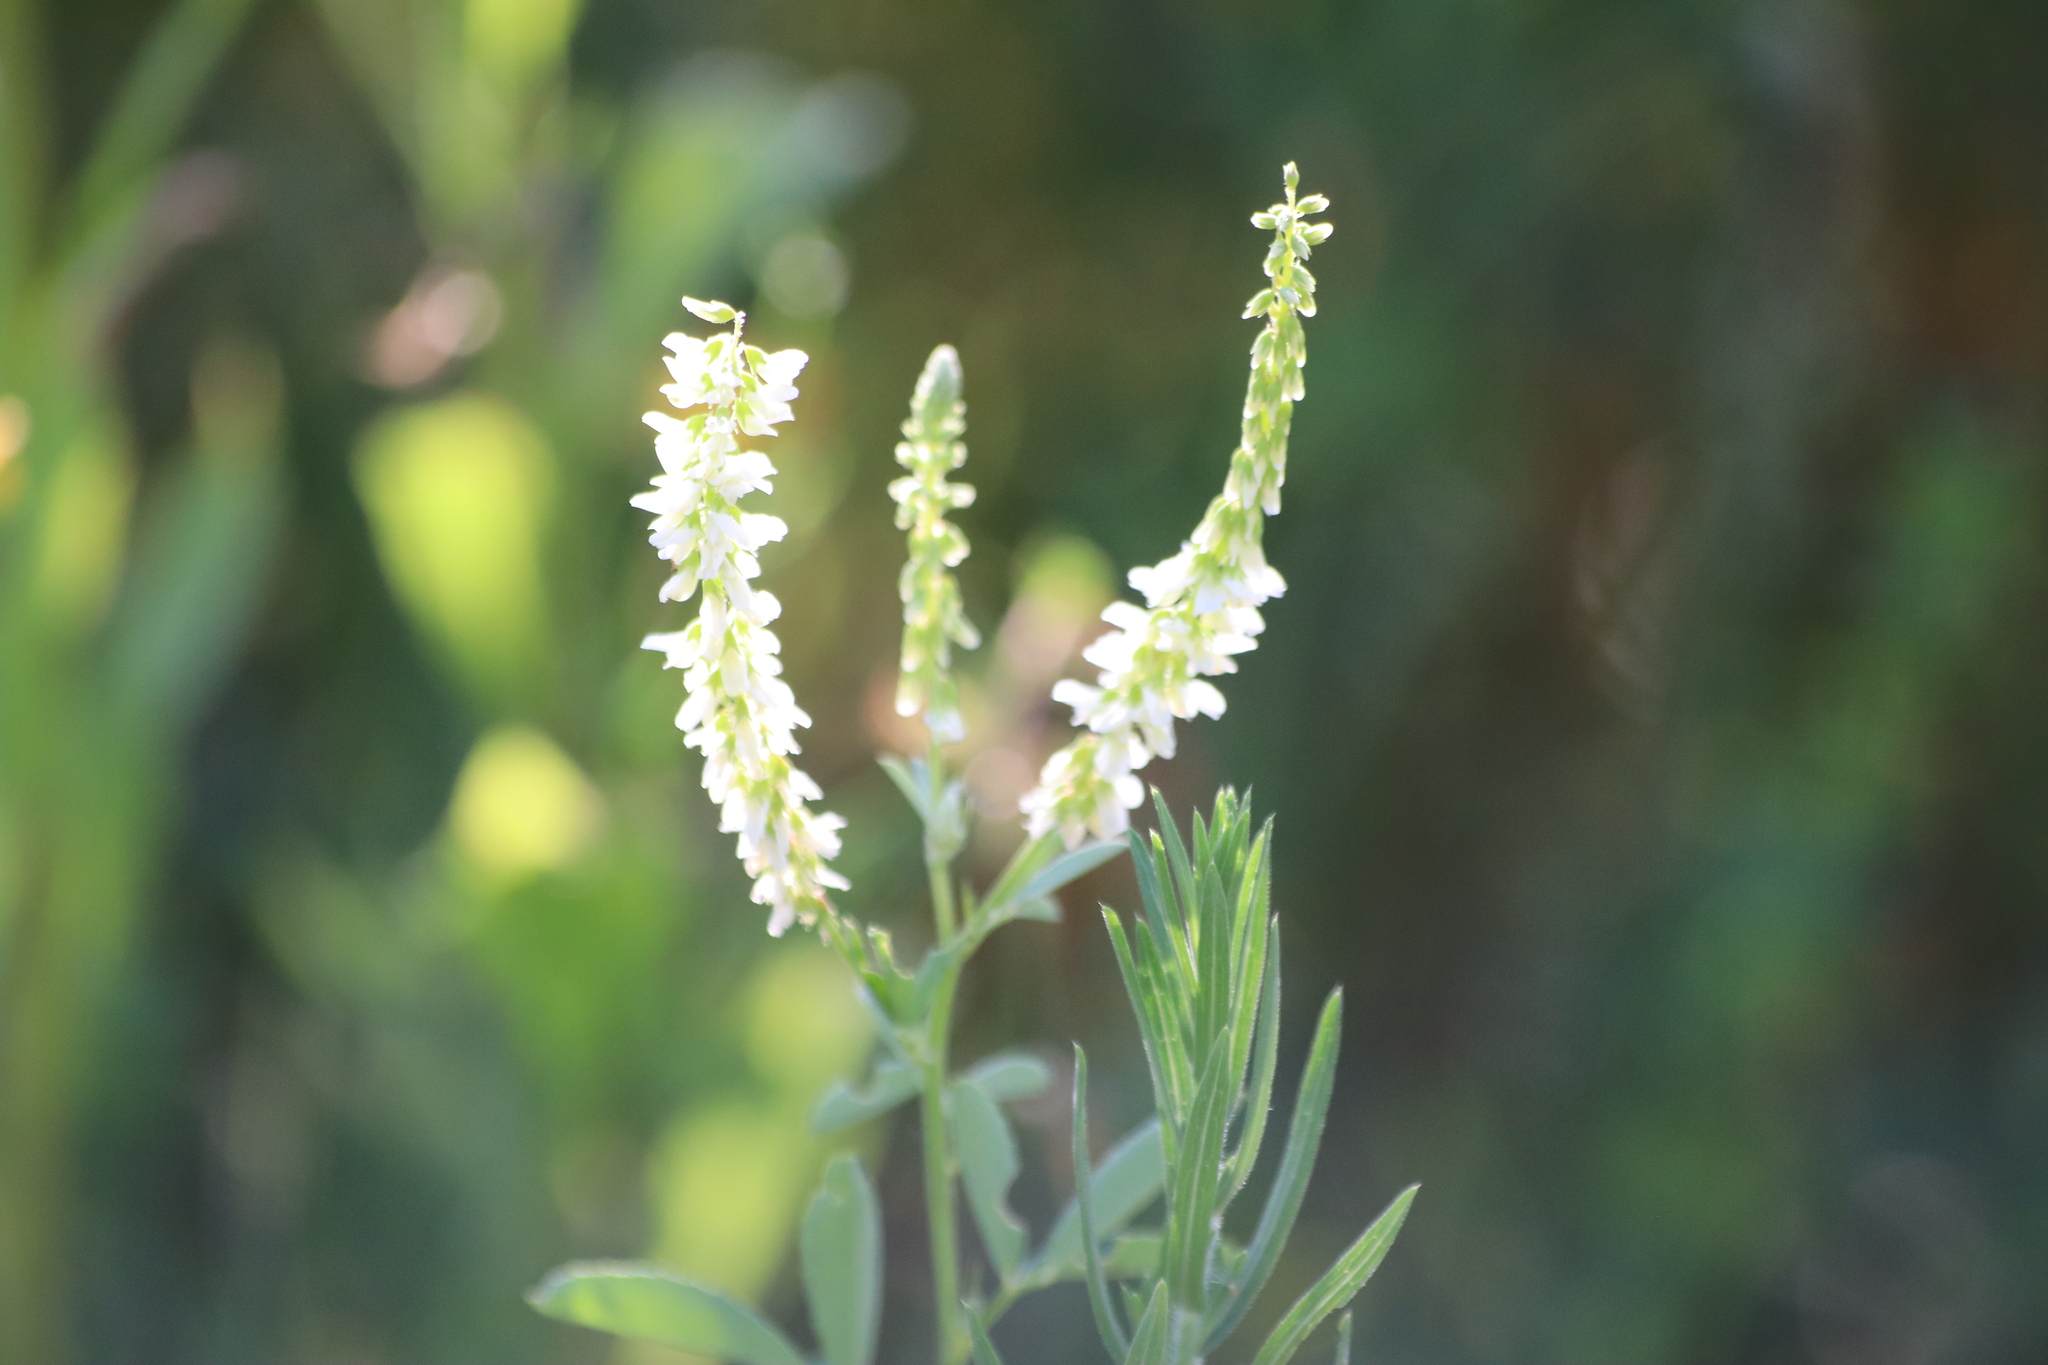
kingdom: Plantae
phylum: Tracheophyta
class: Magnoliopsida
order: Fabales
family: Fabaceae
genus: Melilotus
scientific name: Melilotus albus
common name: White melilot
